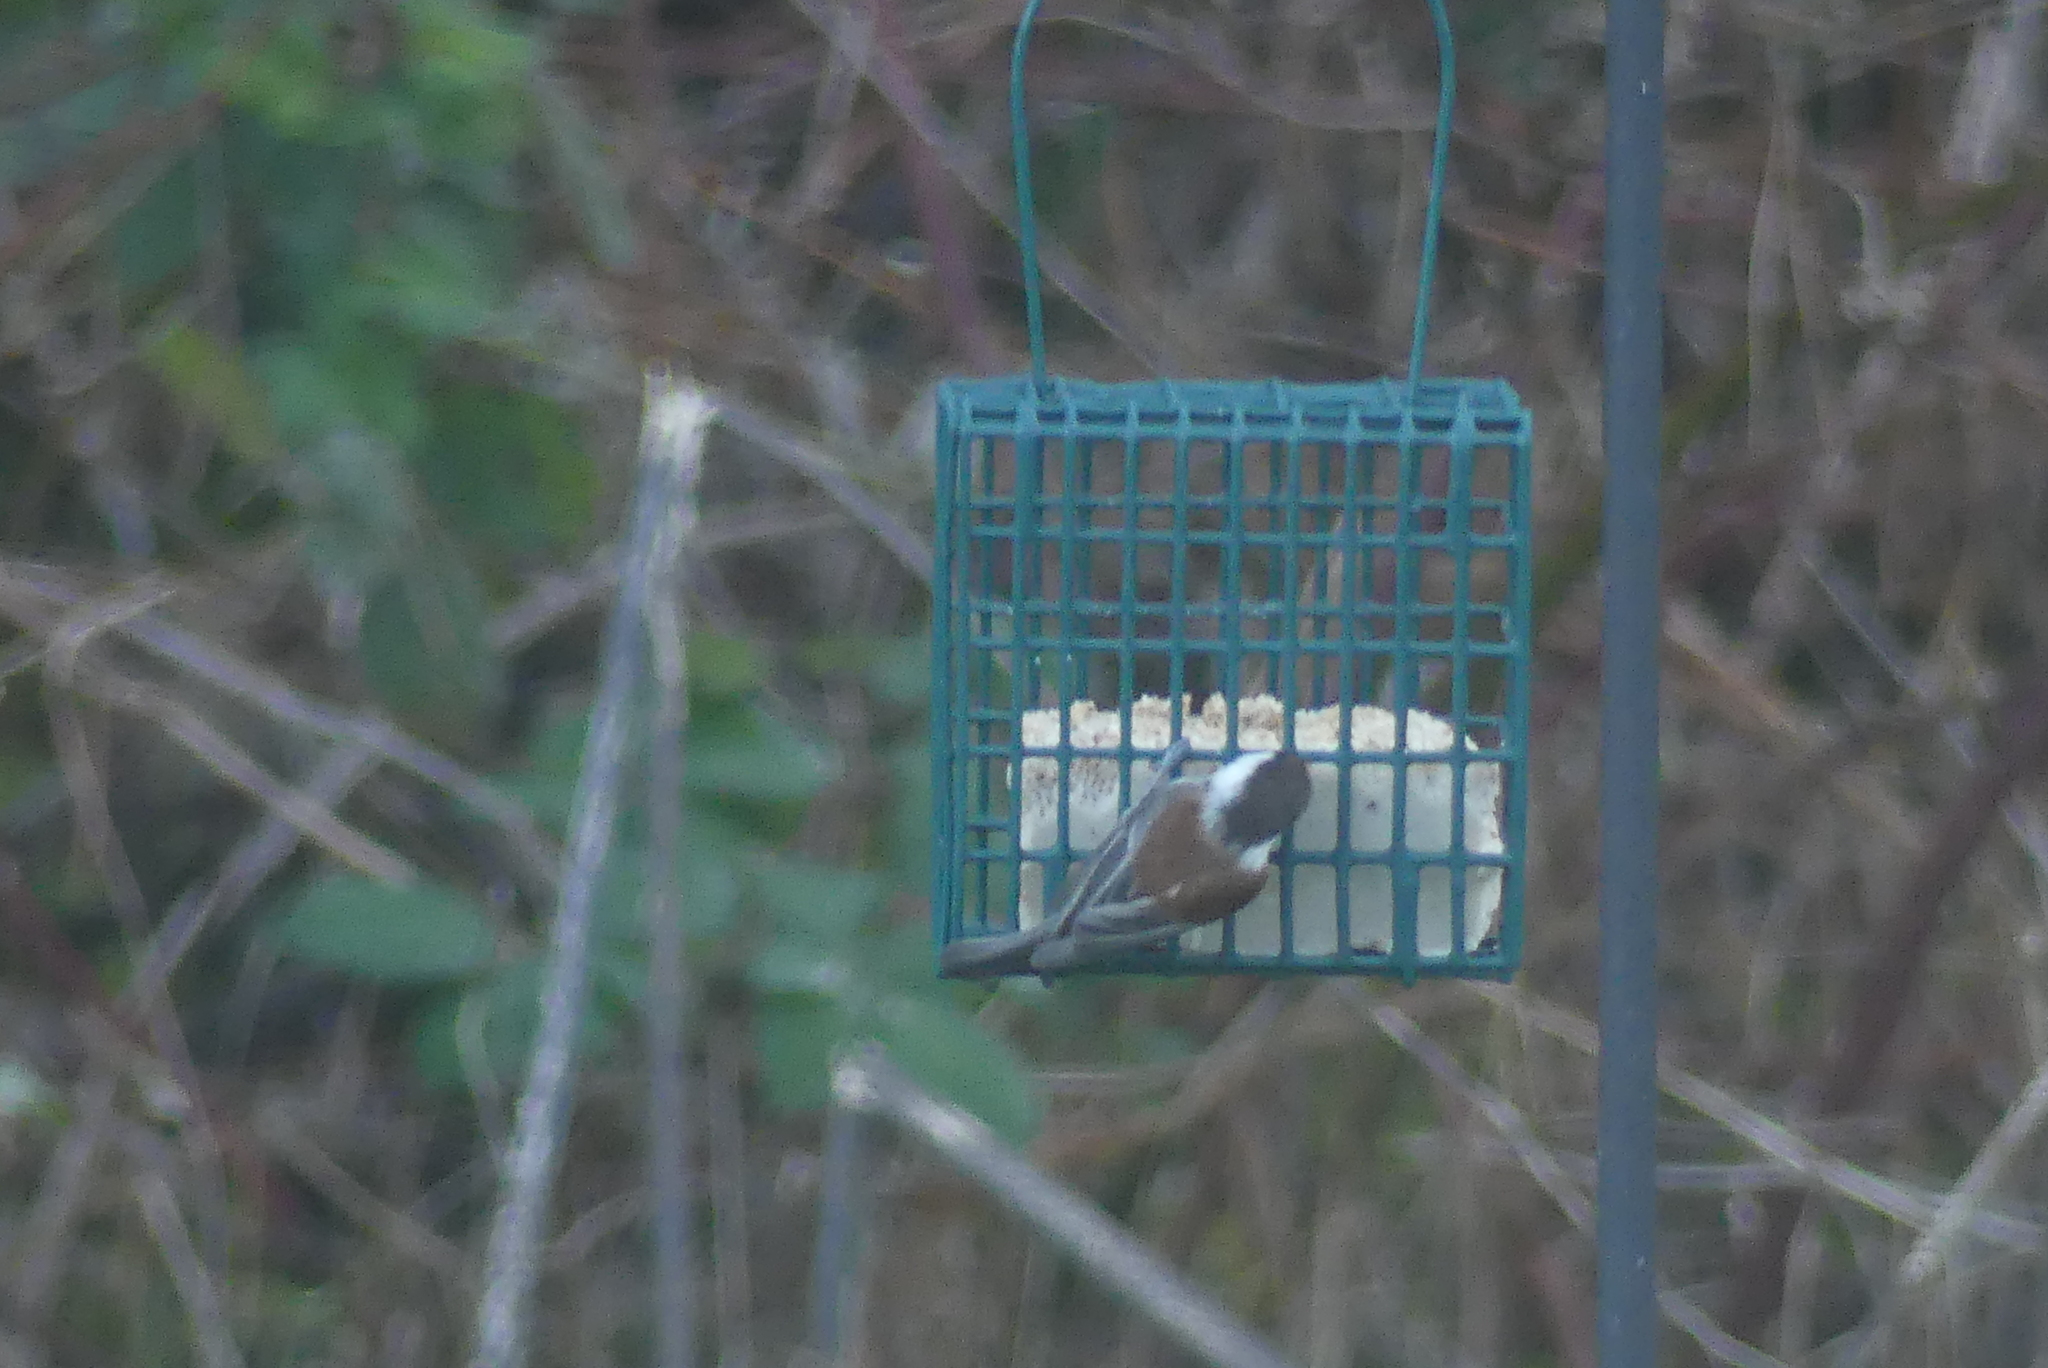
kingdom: Animalia
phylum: Chordata
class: Aves
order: Passeriformes
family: Paridae
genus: Poecile
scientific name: Poecile rufescens
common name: Chestnut-backed chickadee
